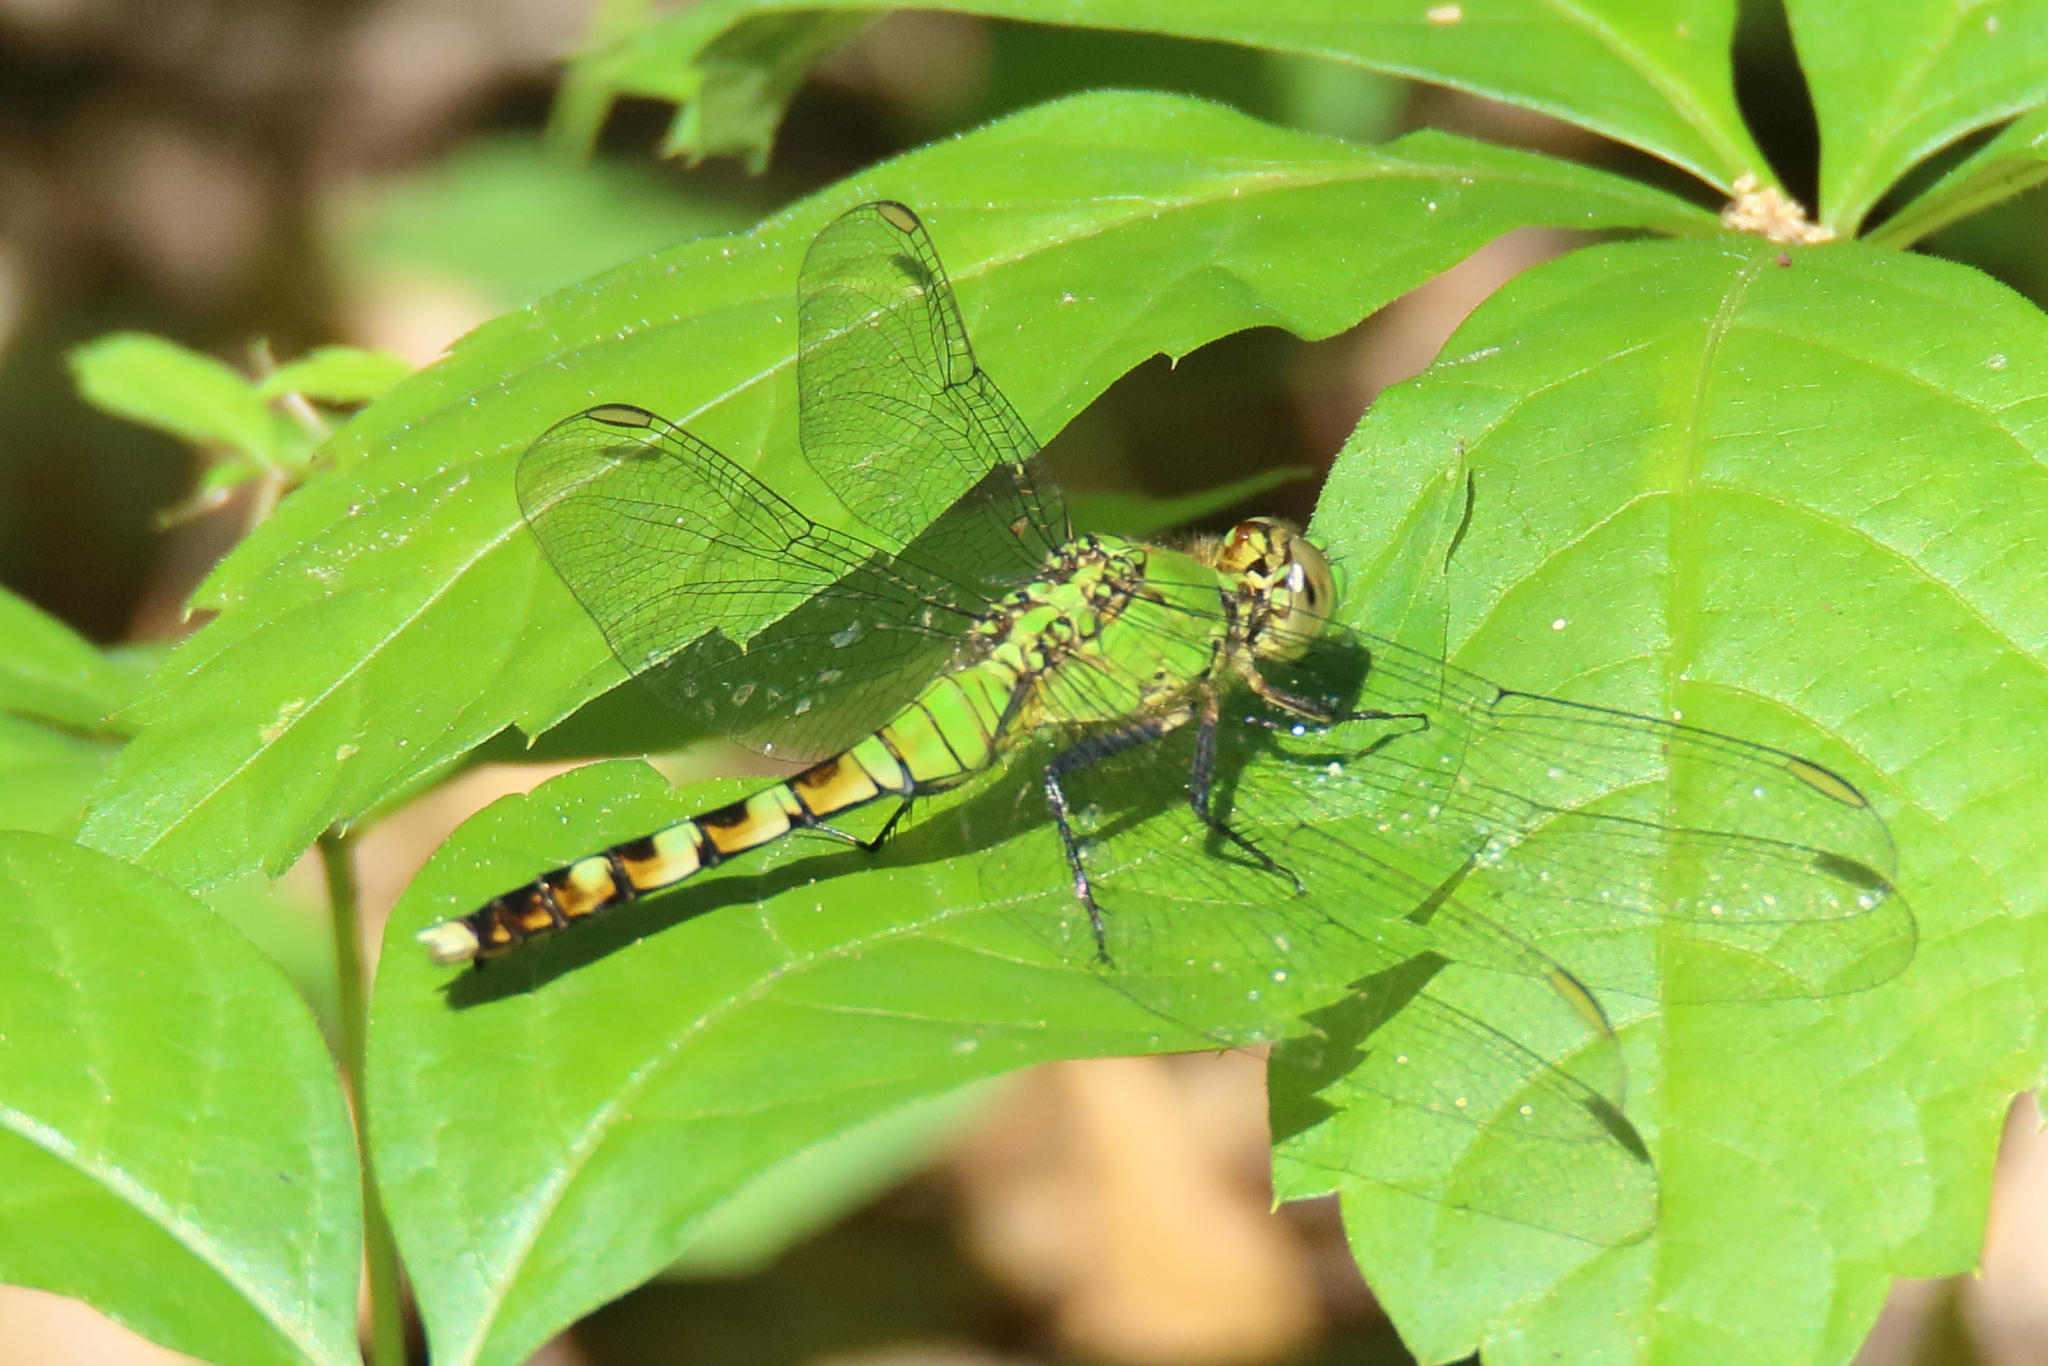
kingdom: Animalia
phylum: Arthropoda
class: Insecta
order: Odonata
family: Libellulidae
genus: Erythemis
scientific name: Erythemis simplicicollis
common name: Eastern pondhawk
